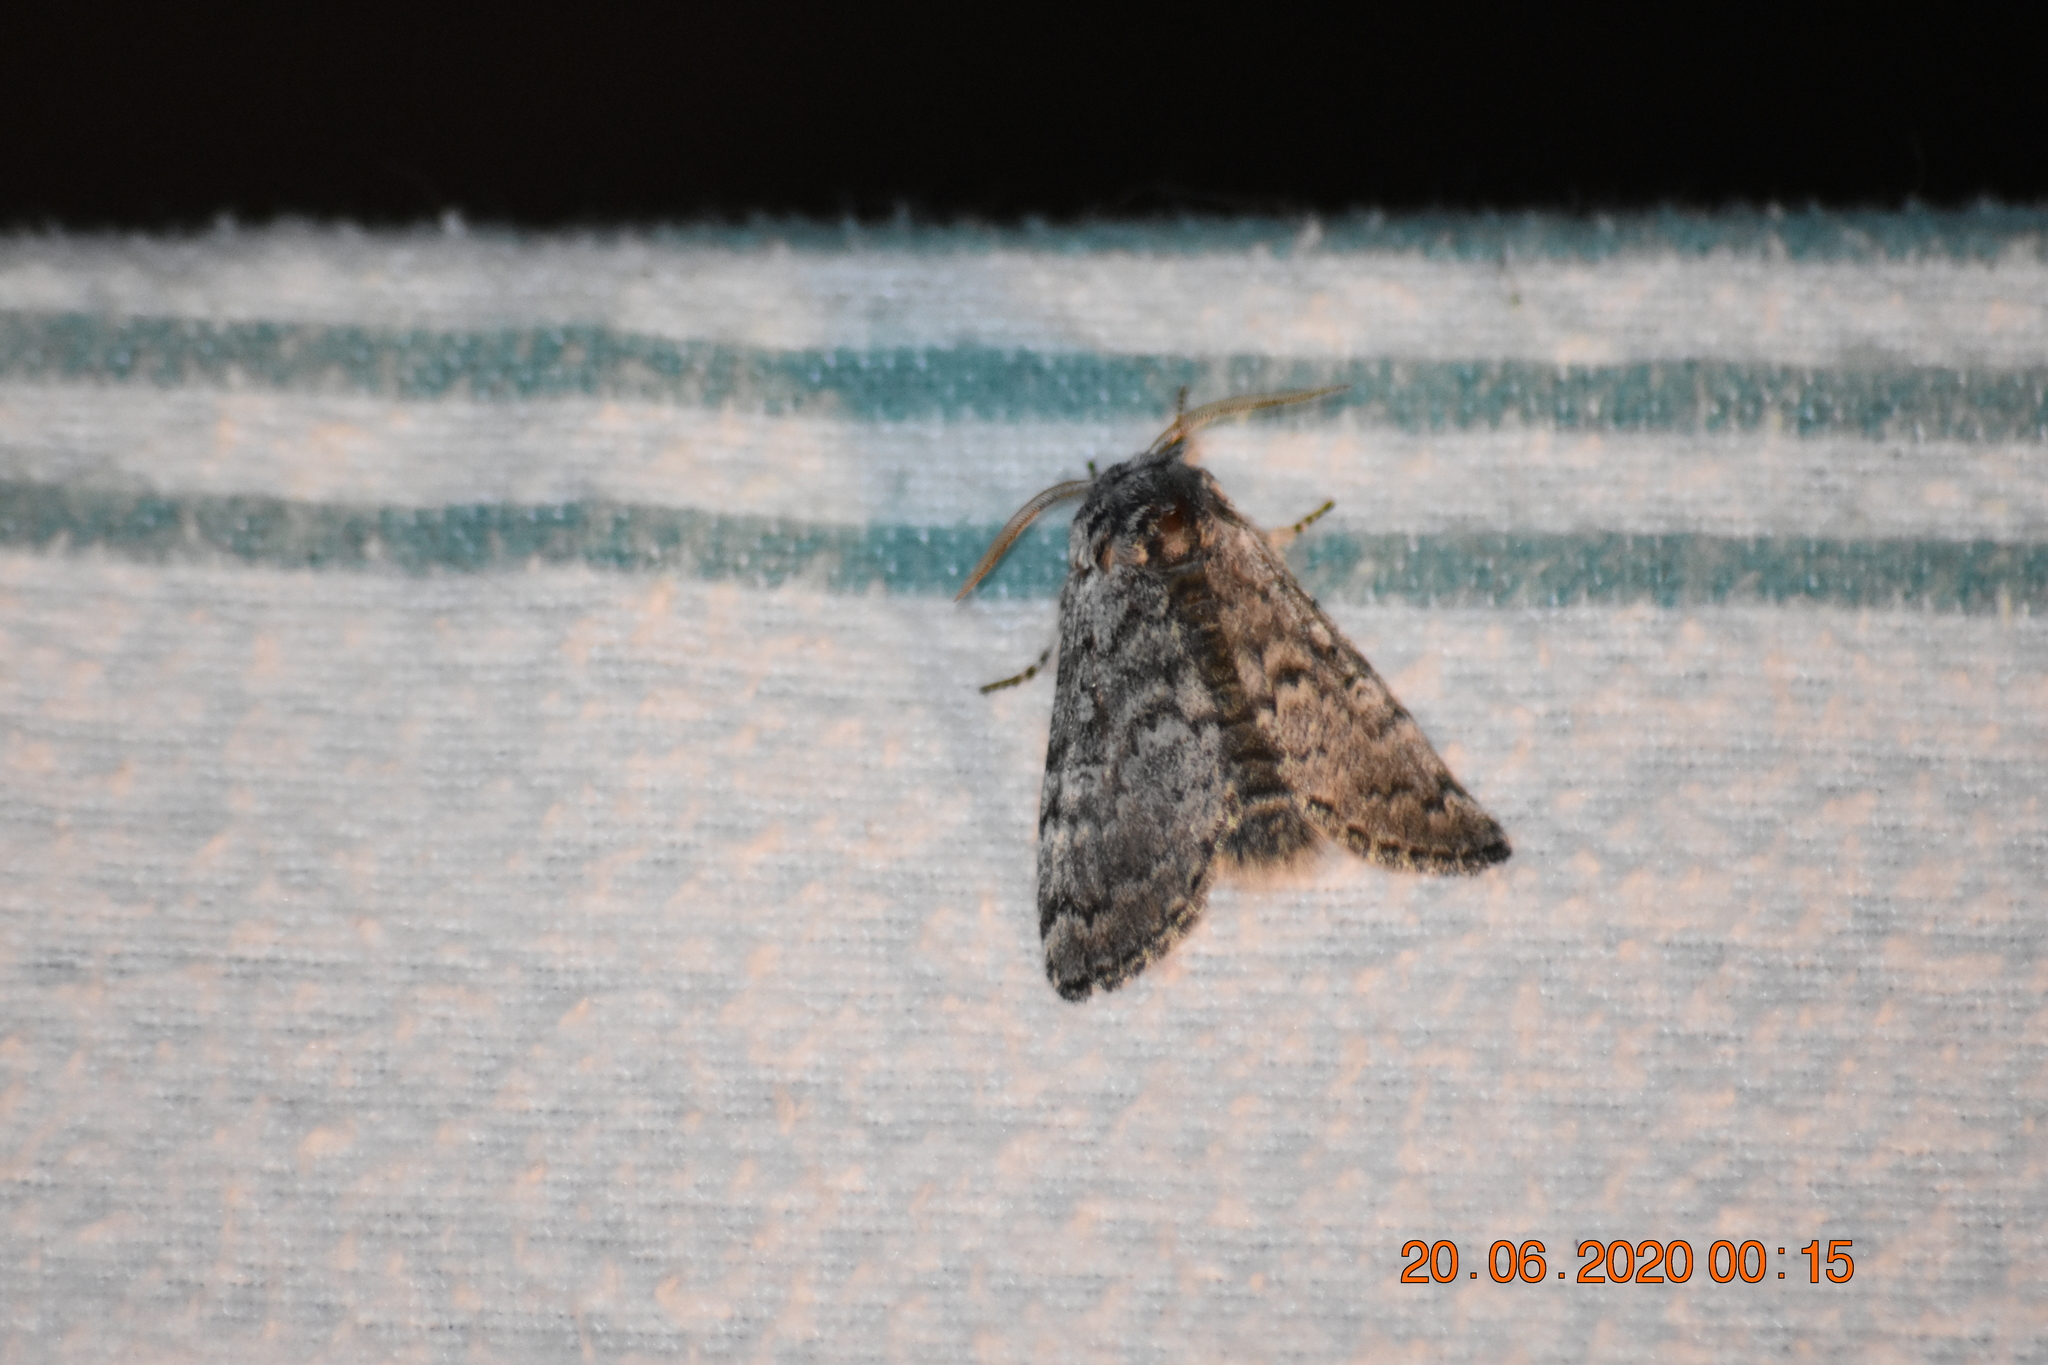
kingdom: Animalia
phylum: Arthropoda
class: Insecta
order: Lepidoptera
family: Noctuidae
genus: Colocasia
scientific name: Colocasia propinquilinea
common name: Close-banded demas
